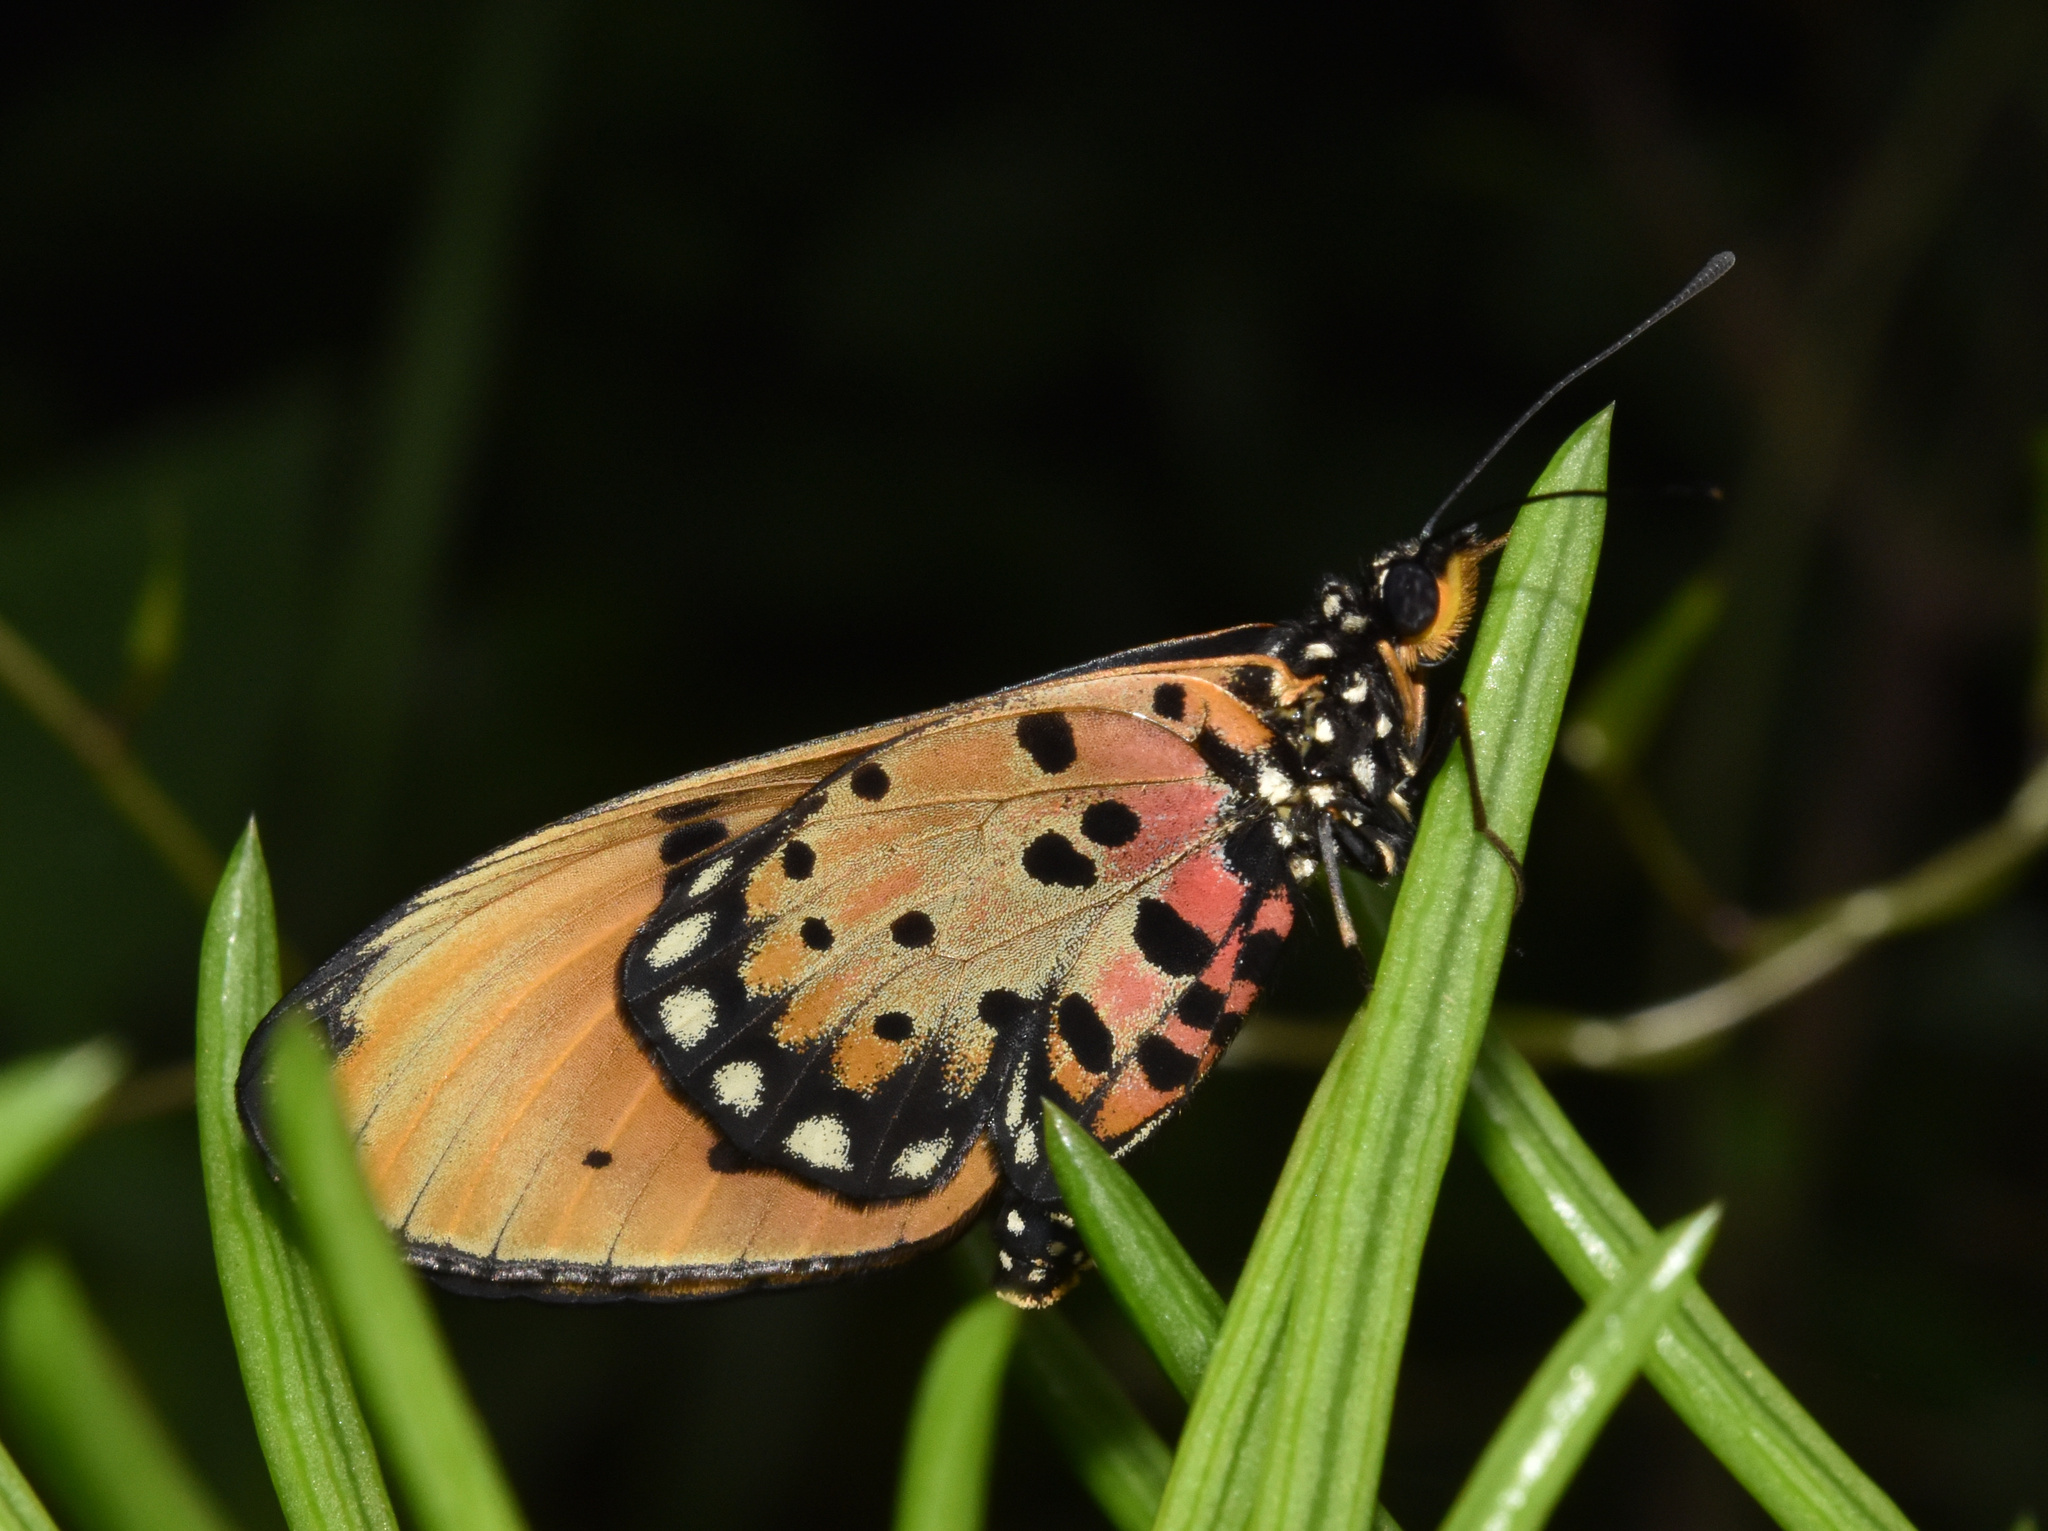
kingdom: Animalia
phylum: Arthropoda
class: Insecta
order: Lepidoptera
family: Nymphalidae
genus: Stephenia
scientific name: Stephenia
